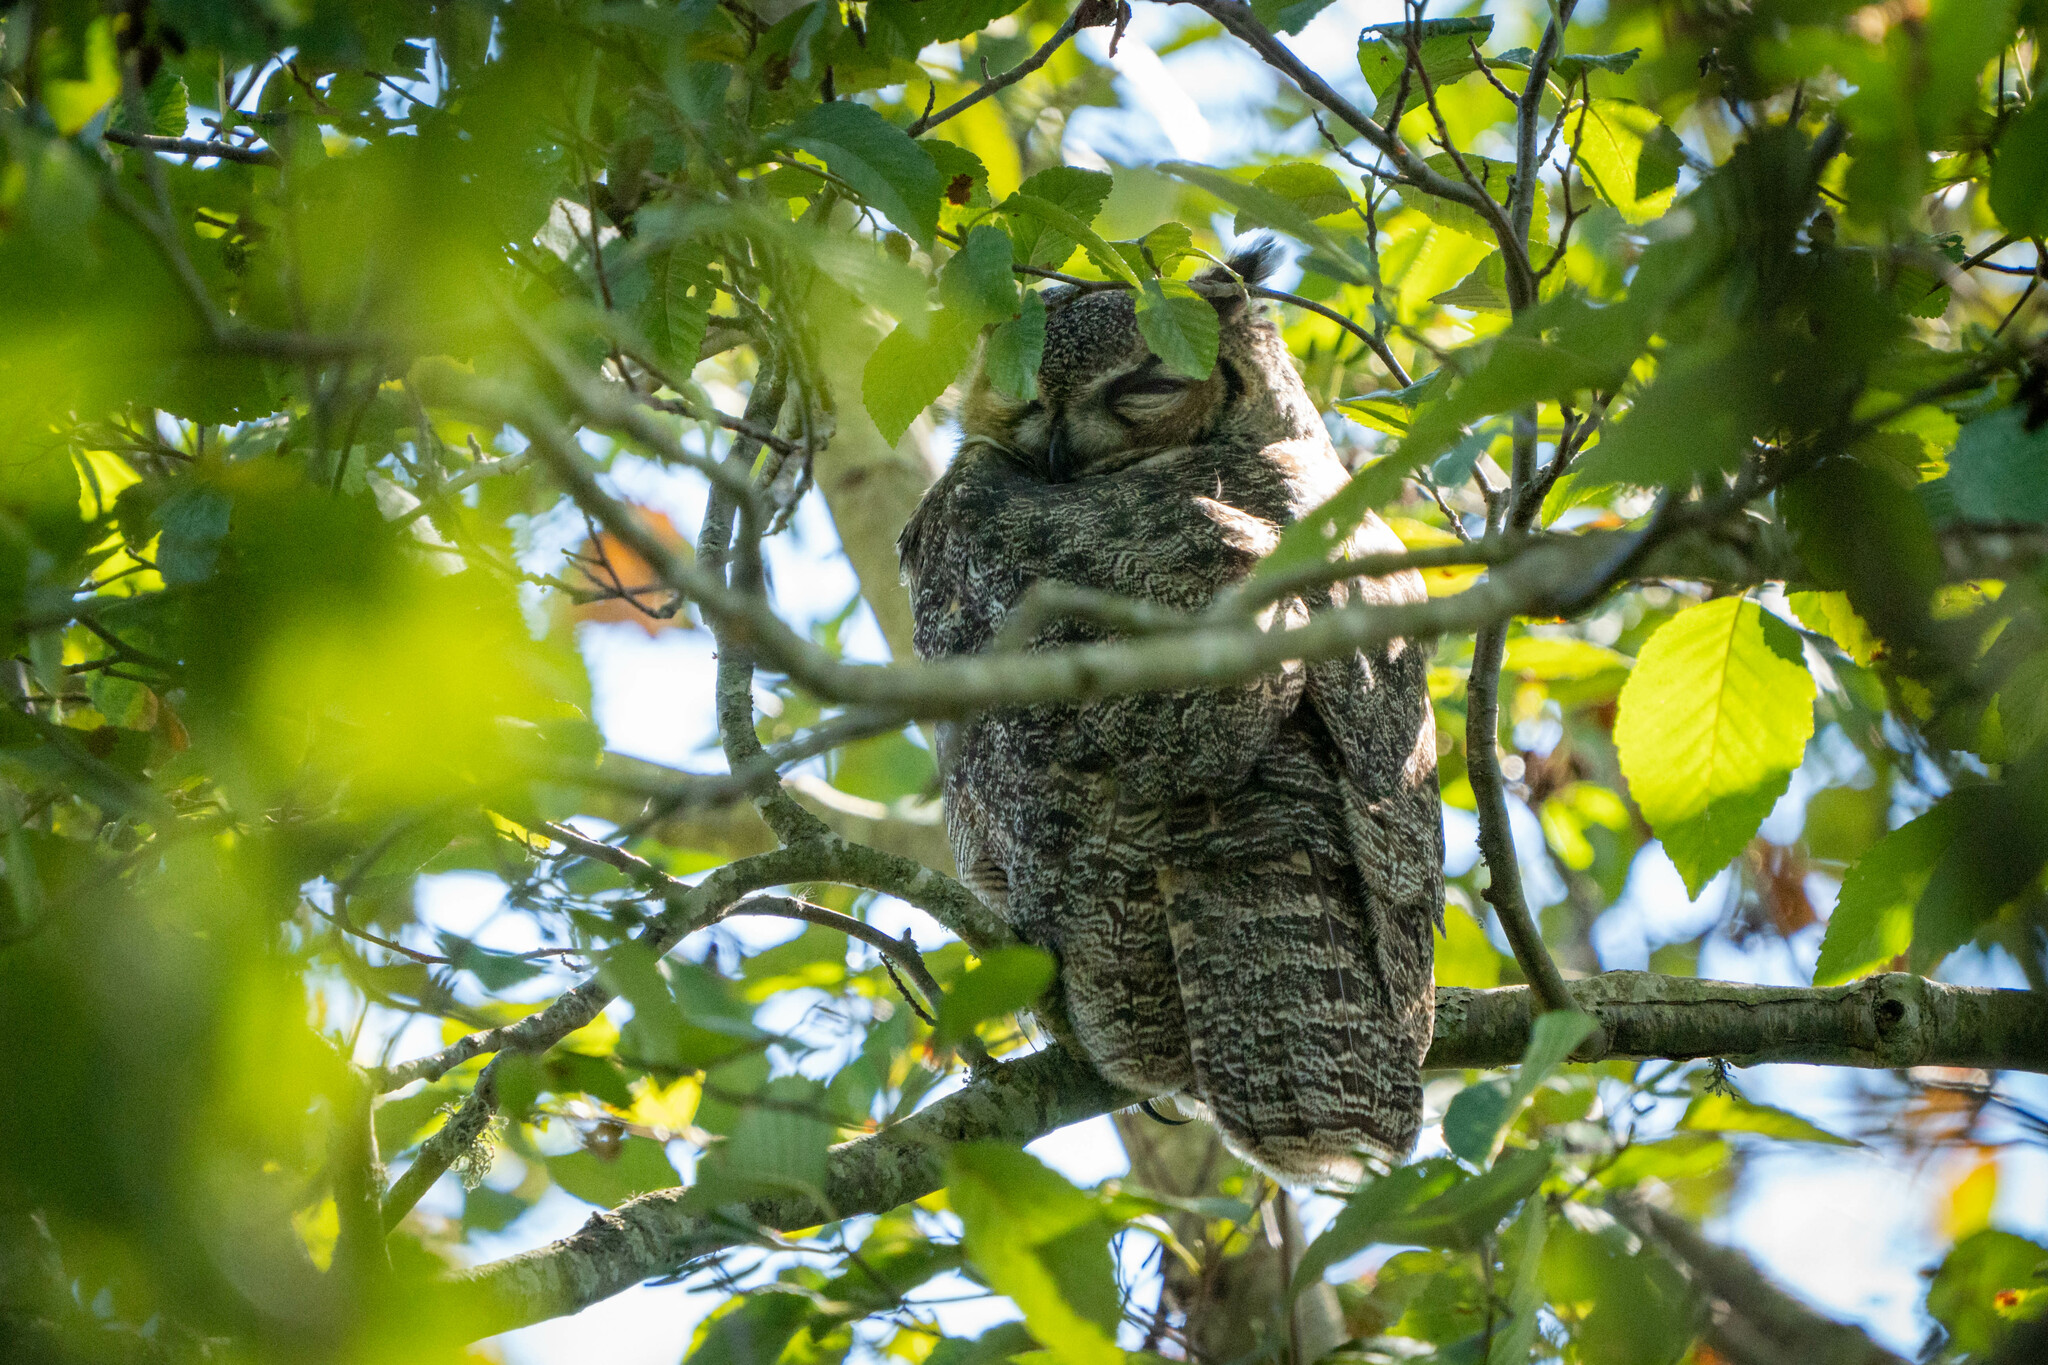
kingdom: Animalia
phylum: Chordata
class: Aves
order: Strigiformes
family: Strigidae
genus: Bubo
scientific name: Bubo virginianus
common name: Great horned owl
